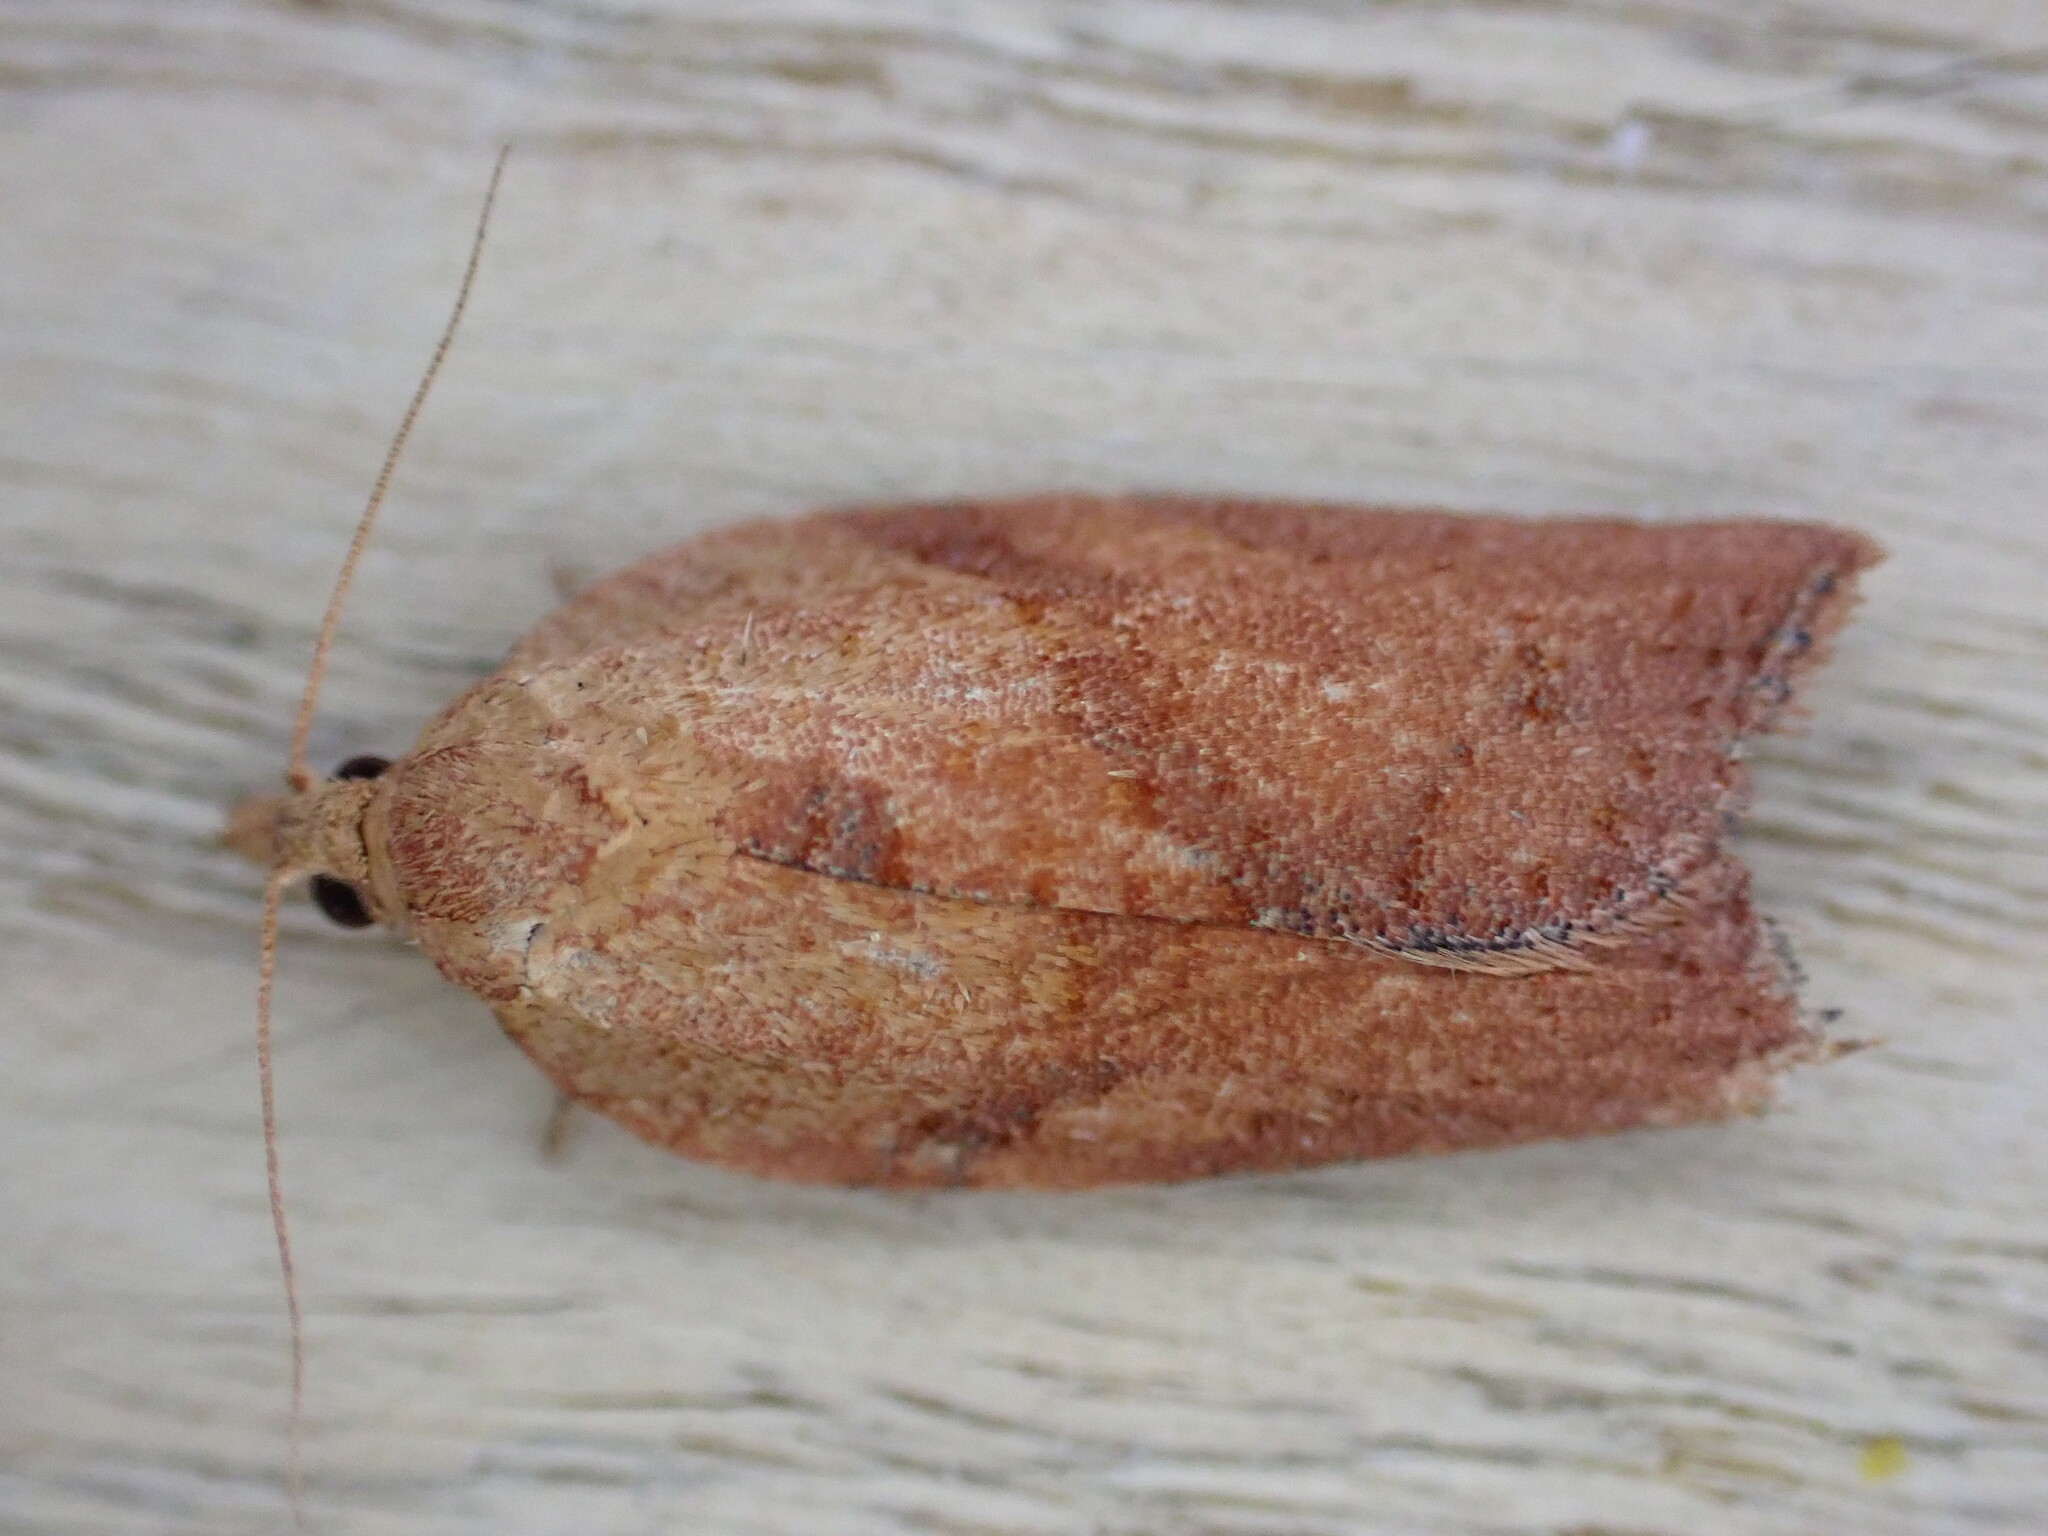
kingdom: Animalia
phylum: Arthropoda
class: Insecta
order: Lepidoptera
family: Tortricidae
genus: Epiphyas
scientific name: Epiphyas postvittana
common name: Light brown apple moth
